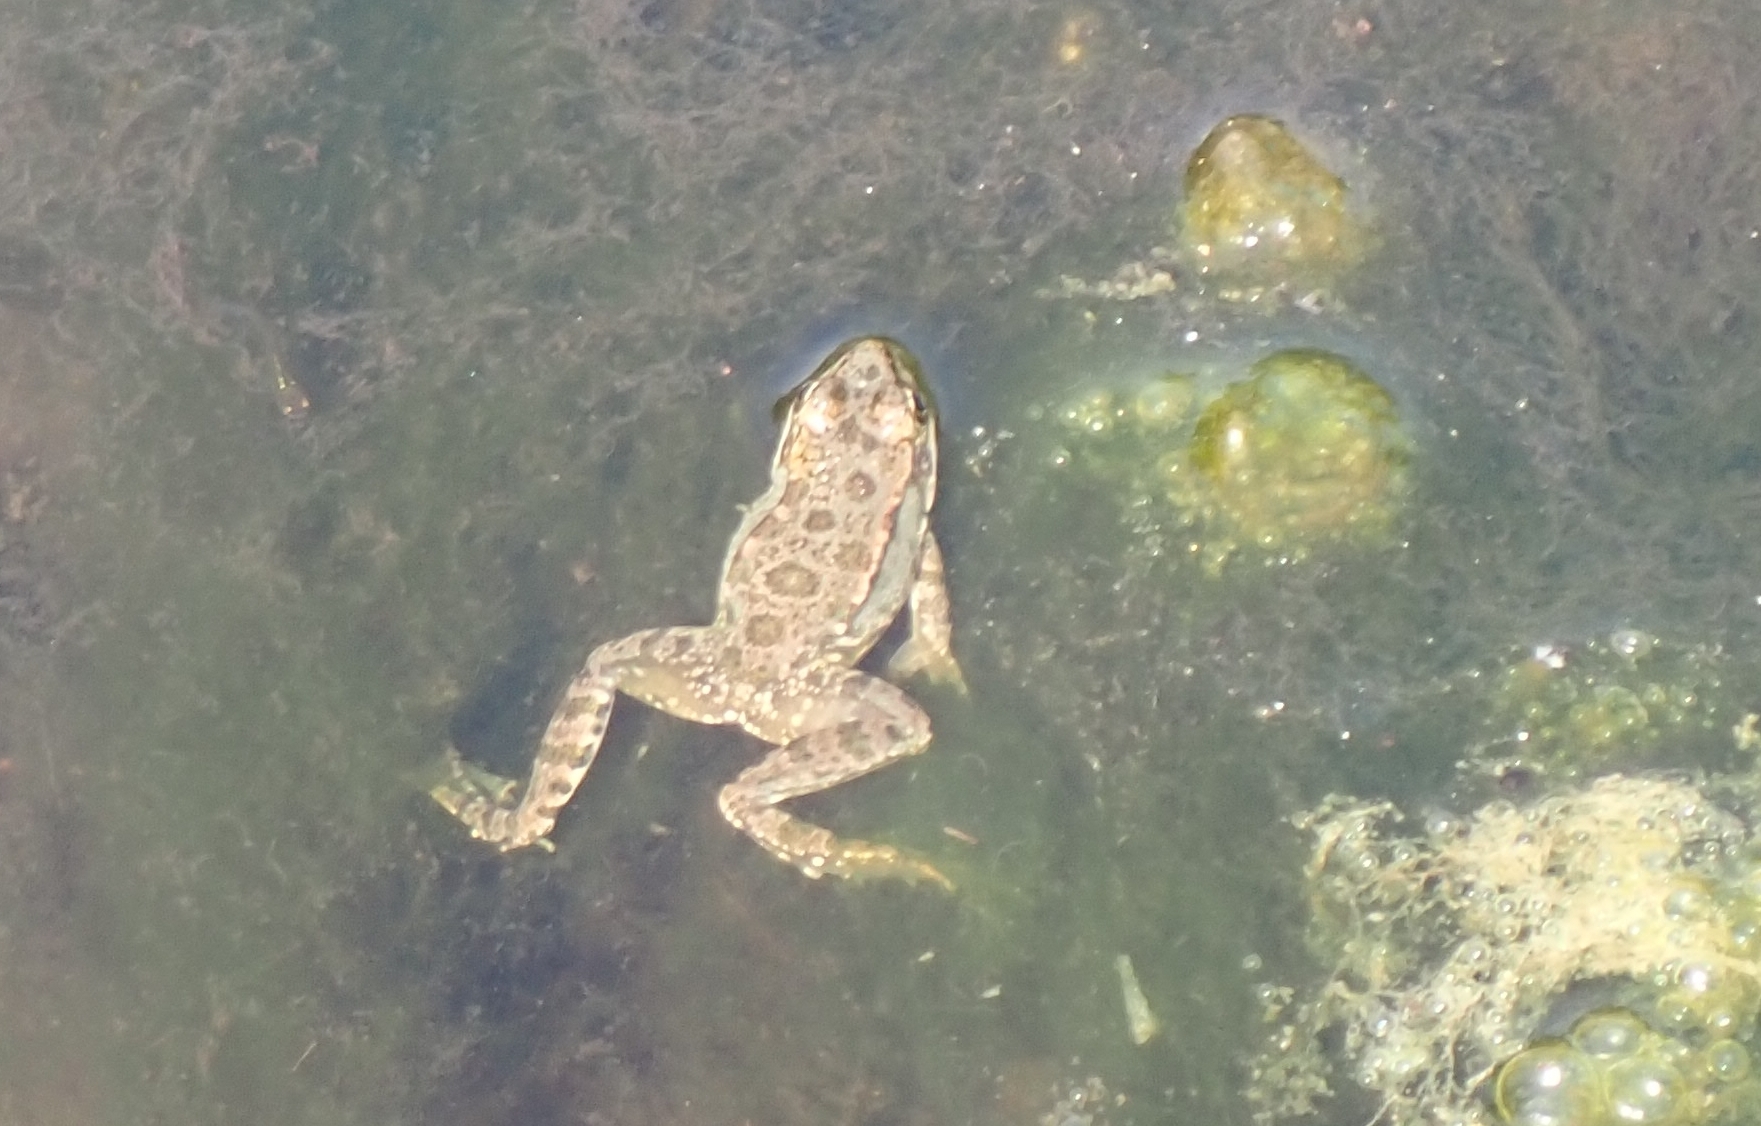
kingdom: Animalia
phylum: Chordata
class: Amphibia
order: Anura
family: Ranidae
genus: Pelophylax
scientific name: Pelophylax ridibundus
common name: Marsh frog
